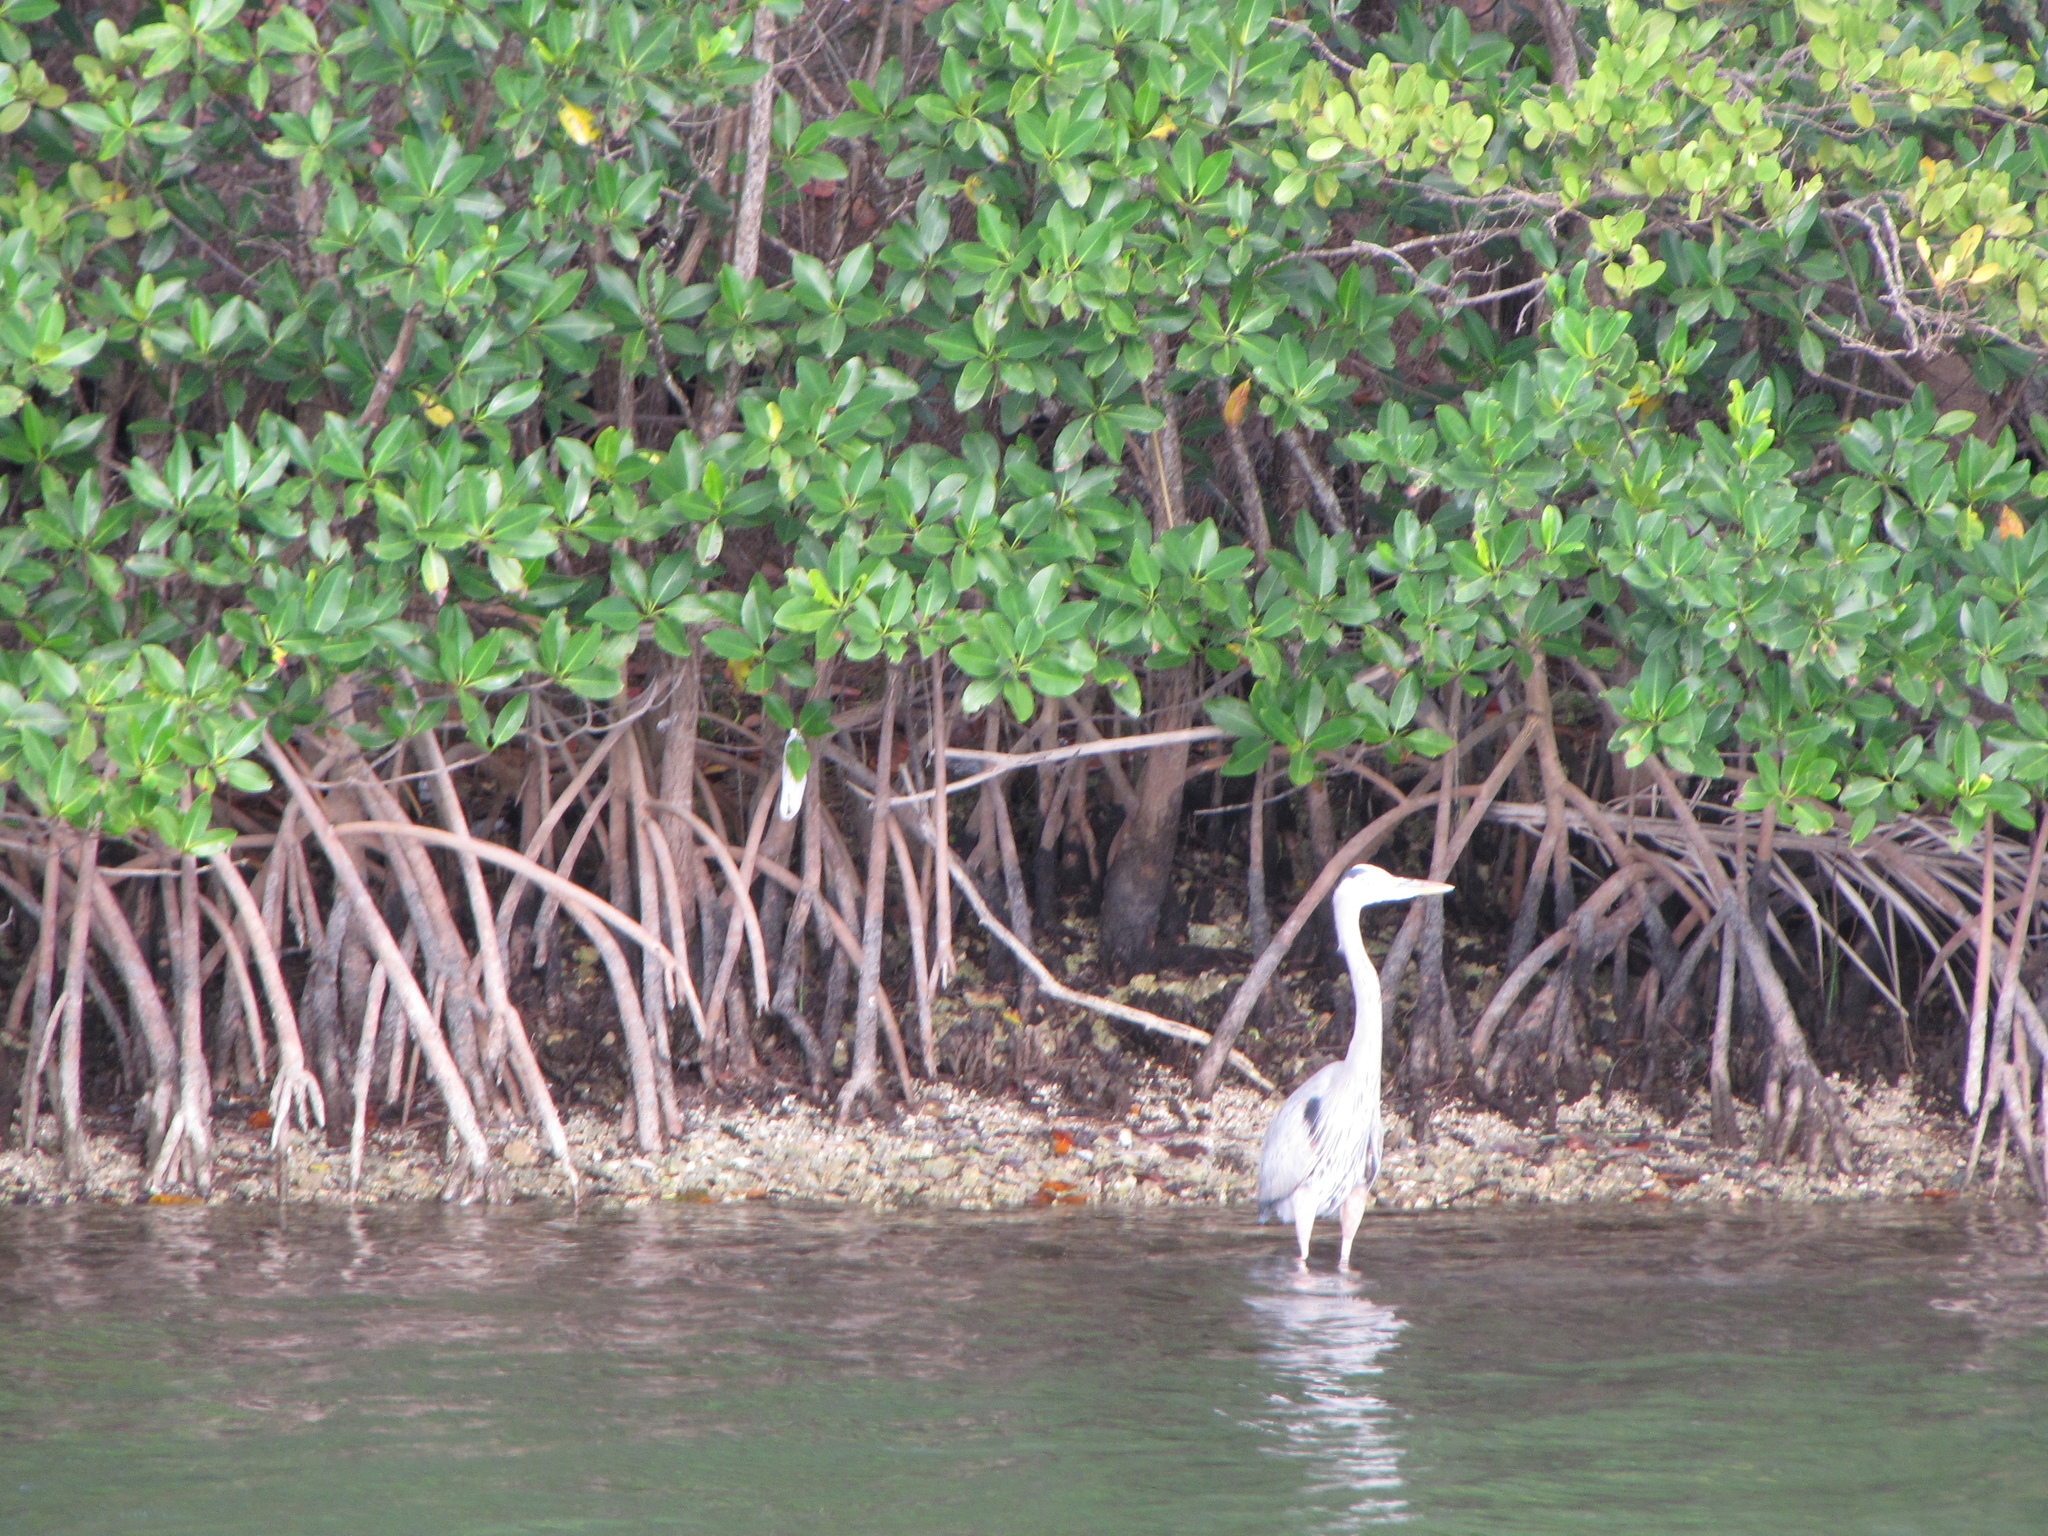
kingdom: Animalia
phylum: Chordata
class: Aves
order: Pelecaniformes
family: Ardeidae
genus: Ardea
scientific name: Ardea herodias
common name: Great blue heron
